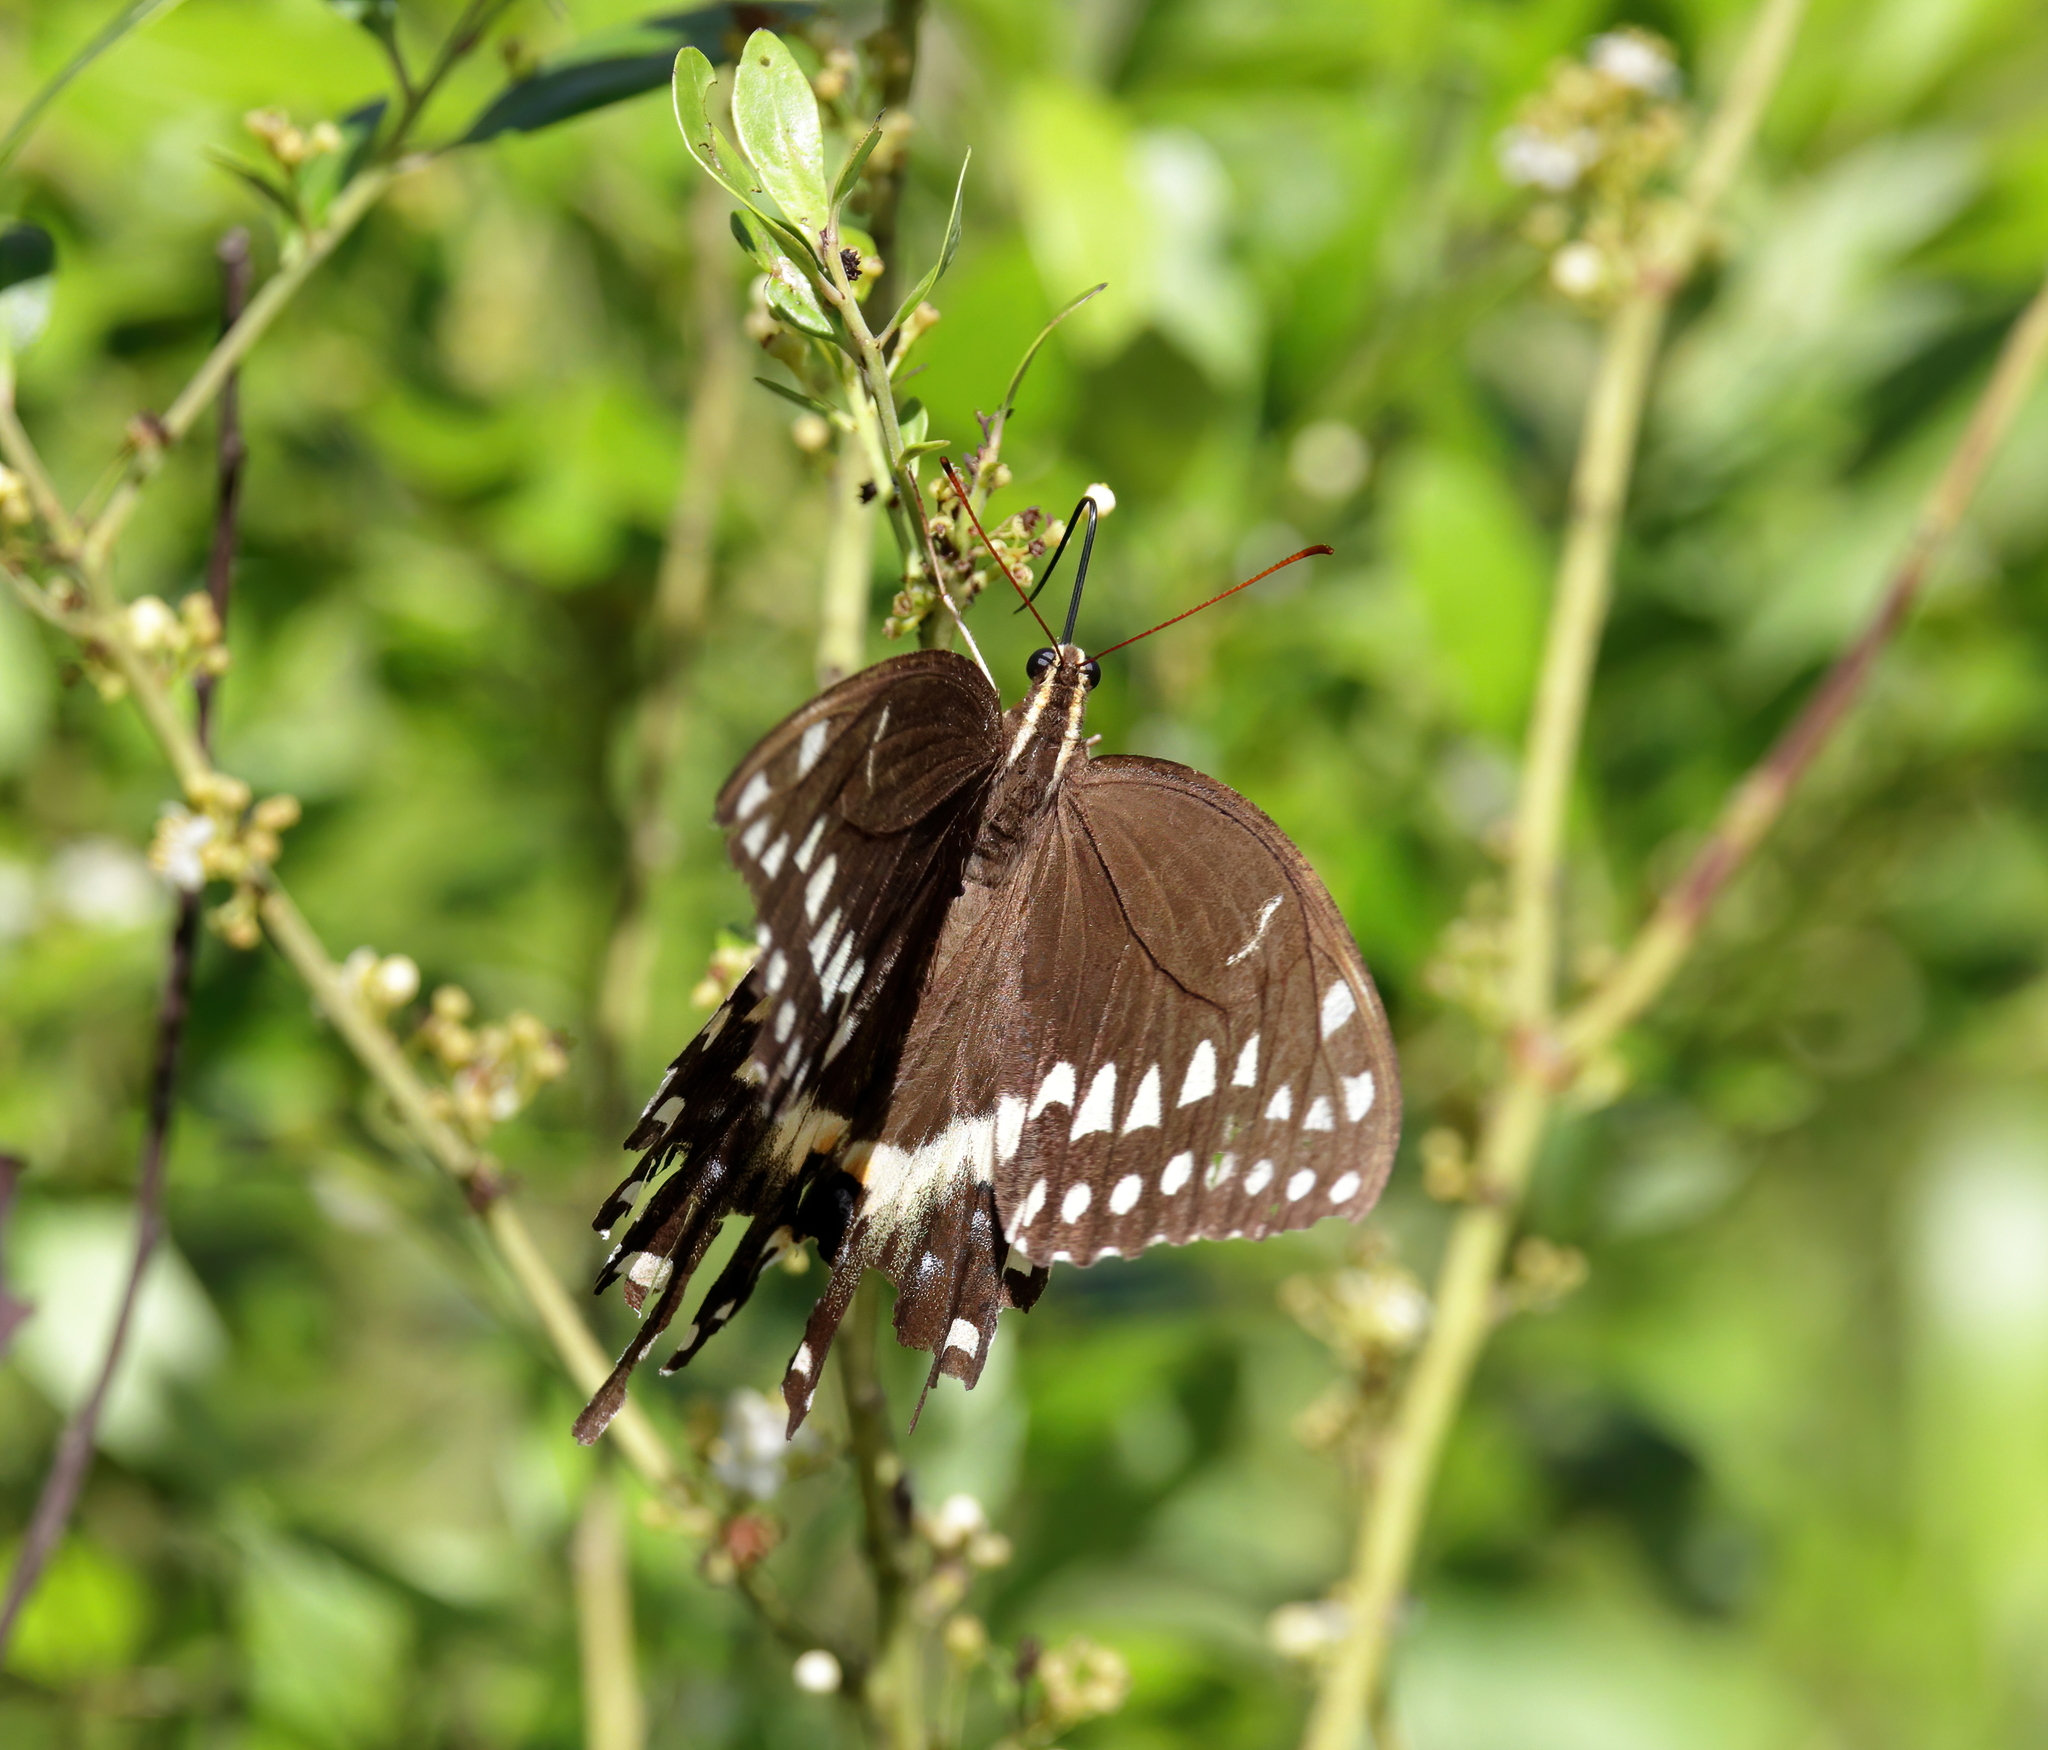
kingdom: Animalia
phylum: Arthropoda
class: Insecta
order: Lepidoptera
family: Papilionidae
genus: Papilio
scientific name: Papilio palamedes
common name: Palamedes swallowtail
